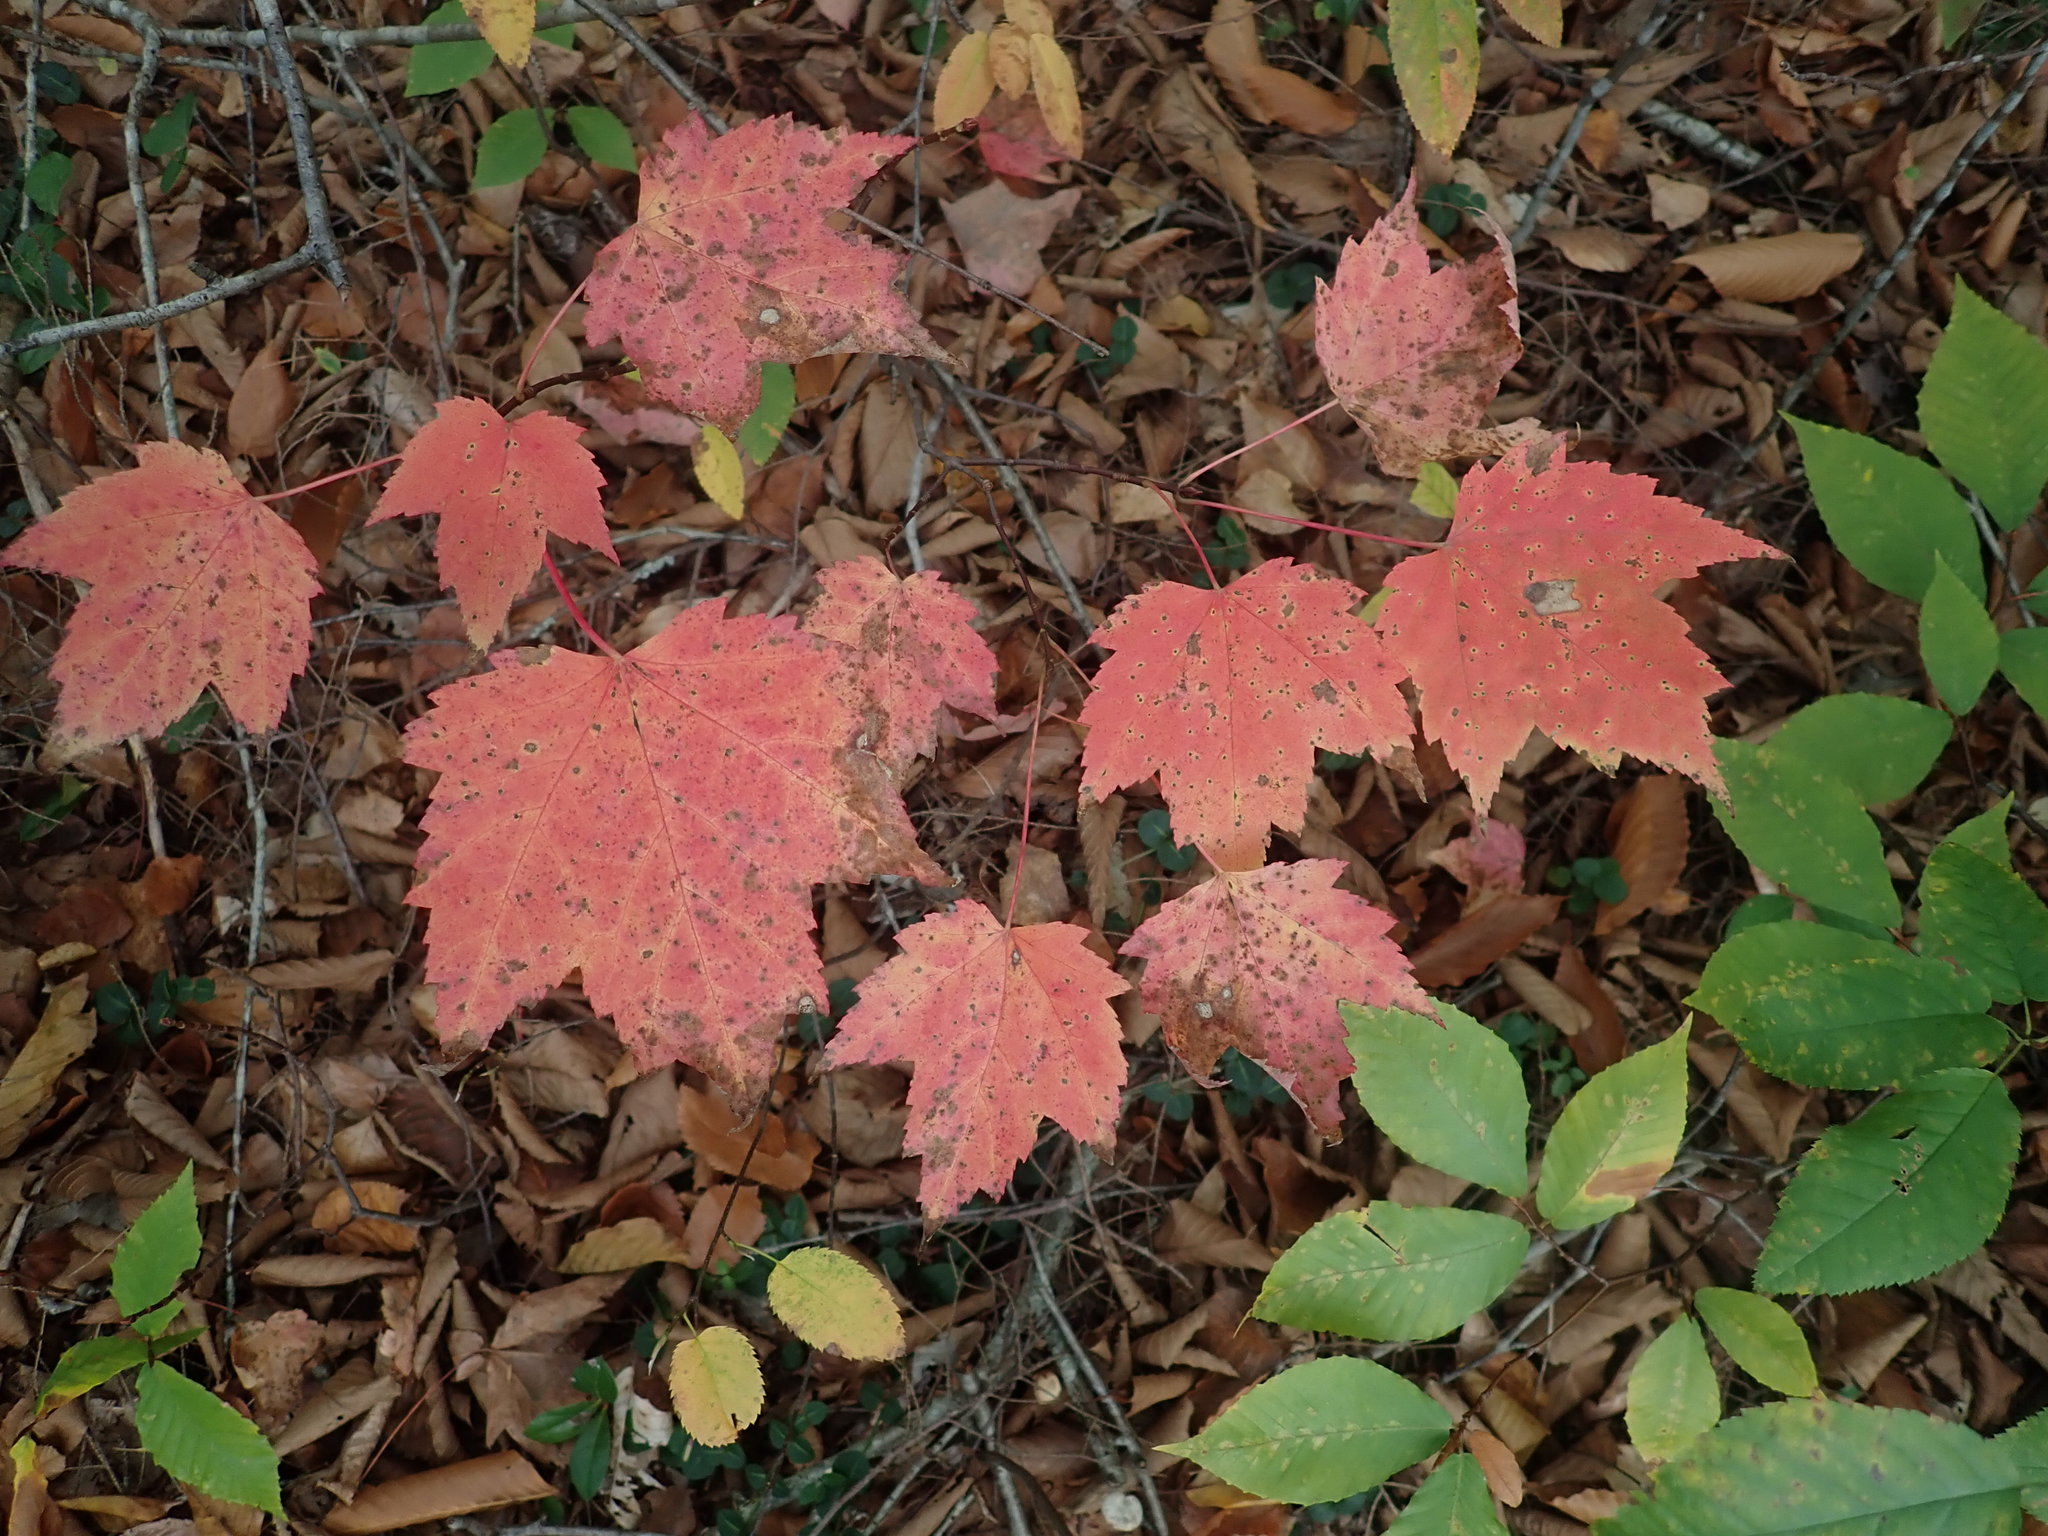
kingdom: Plantae
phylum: Tracheophyta
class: Magnoliopsida
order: Sapindales
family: Sapindaceae
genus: Acer
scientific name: Acer rubrum
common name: Red maple
